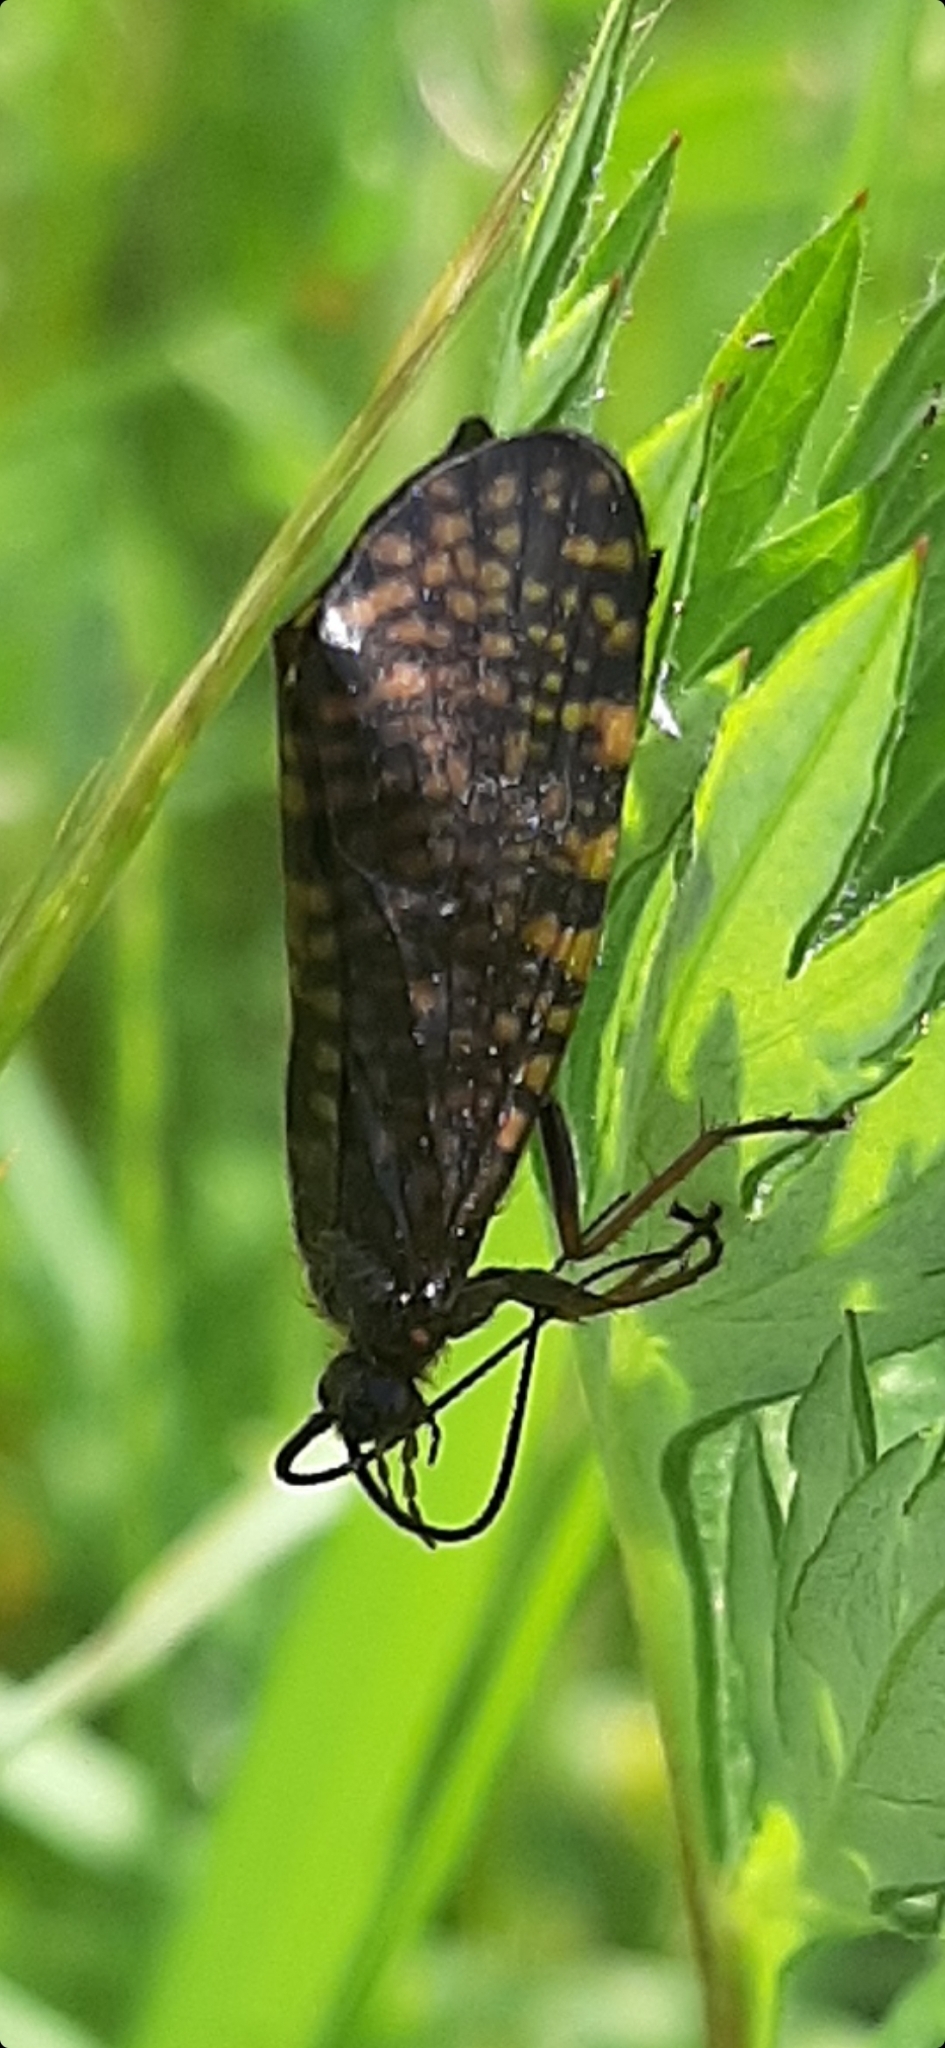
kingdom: Animalia
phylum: Arthropoda
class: Insecta
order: Trichoptera
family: Phryganeidae
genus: Oligostomis
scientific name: Oligostomis reticulata
